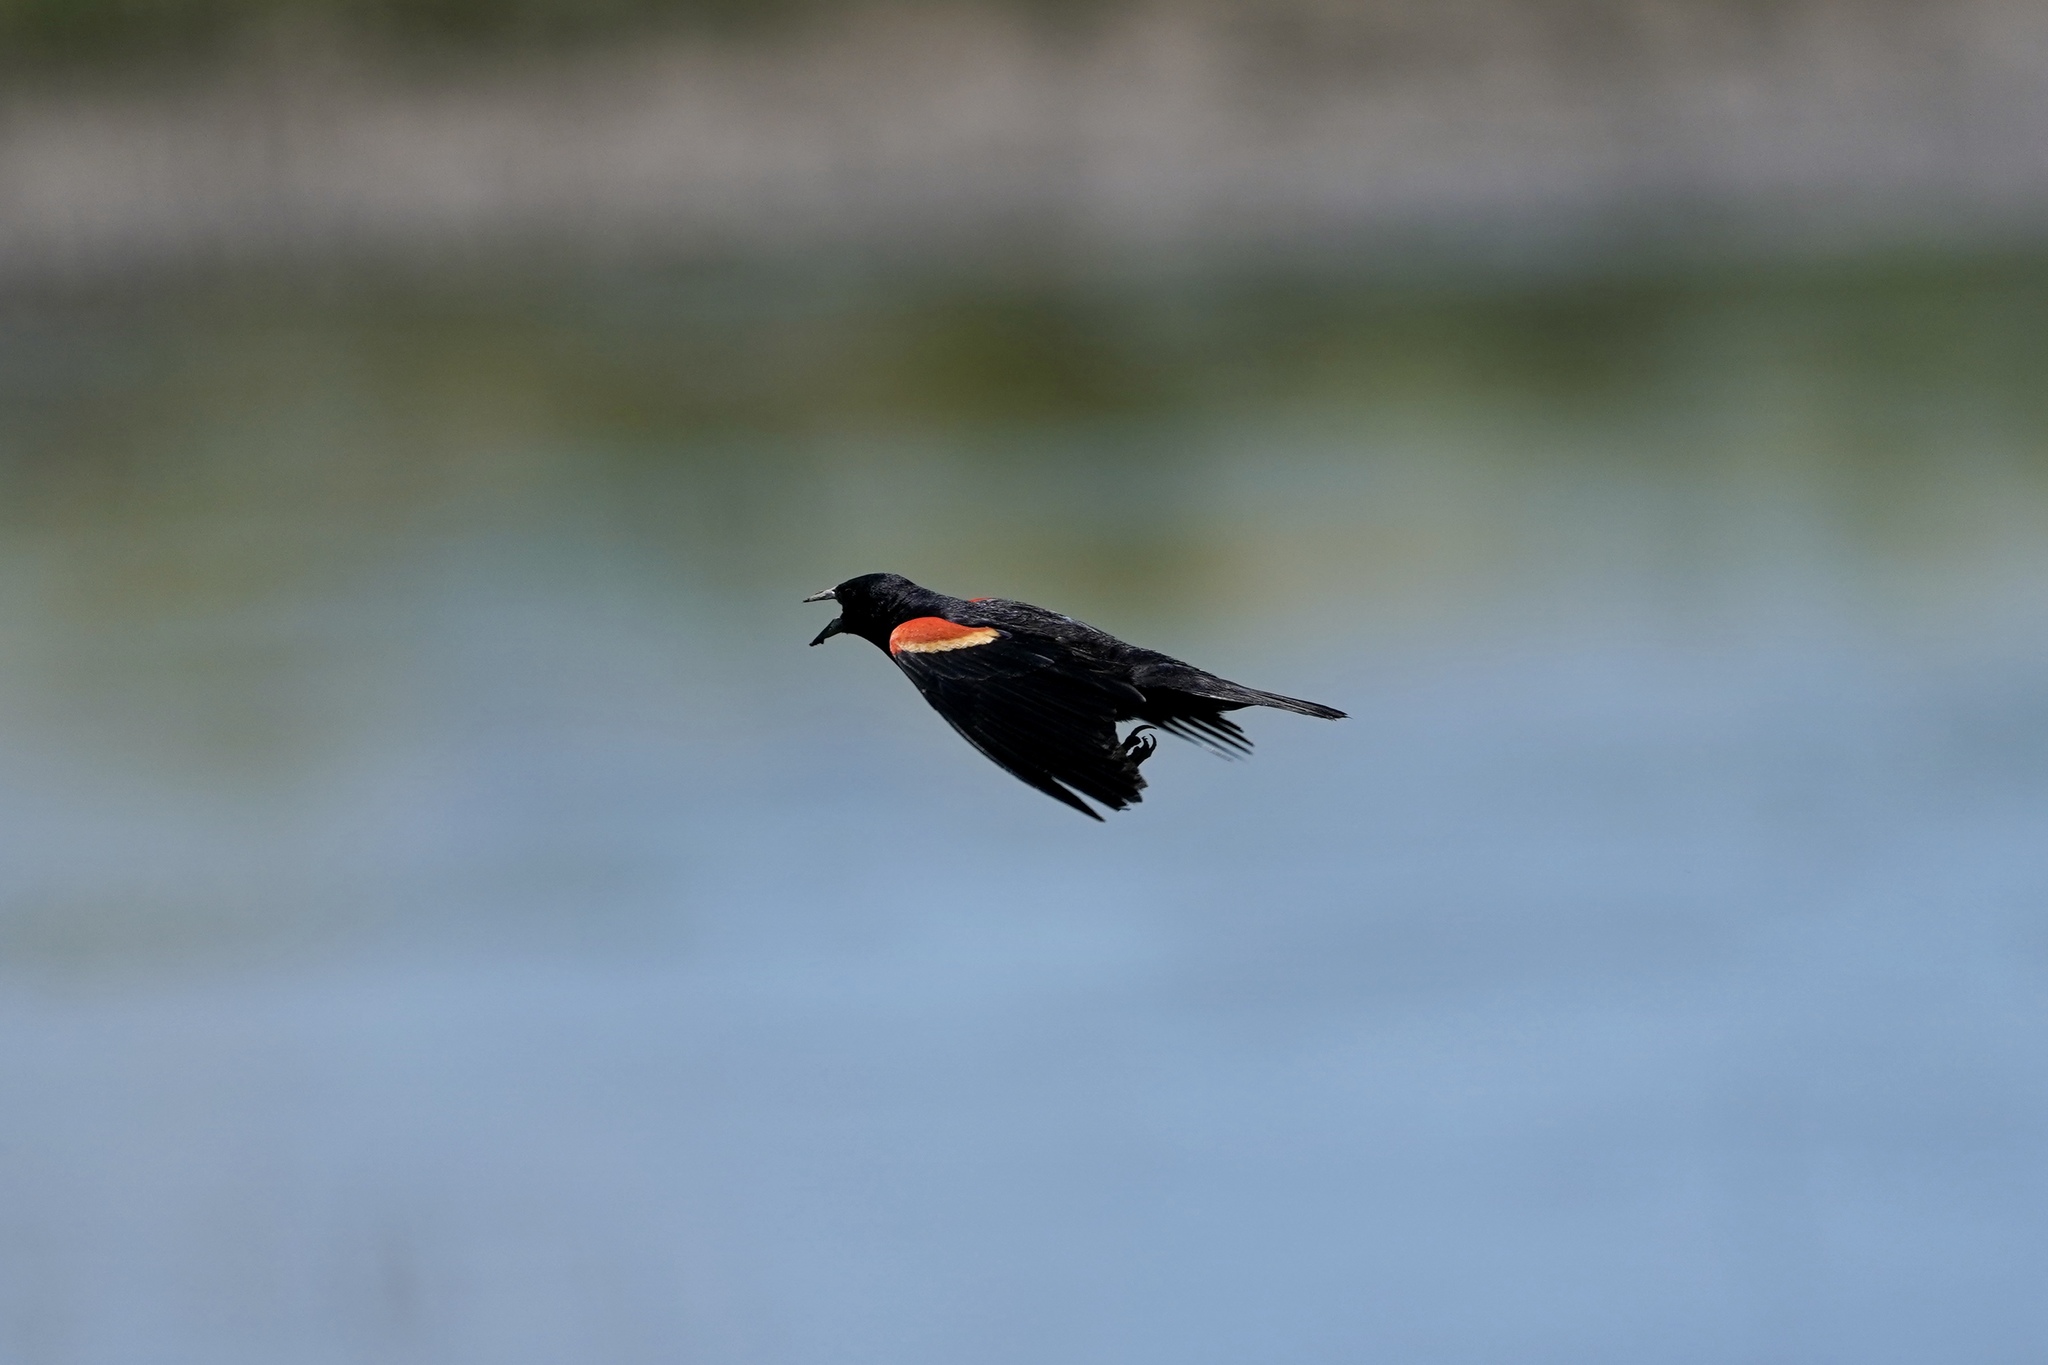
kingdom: Animalia
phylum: Chordata
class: Aves
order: Passeriformes
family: Icteridae
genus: Agelaius
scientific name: Agelaius phoeniceus
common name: Red-winged blackbird
